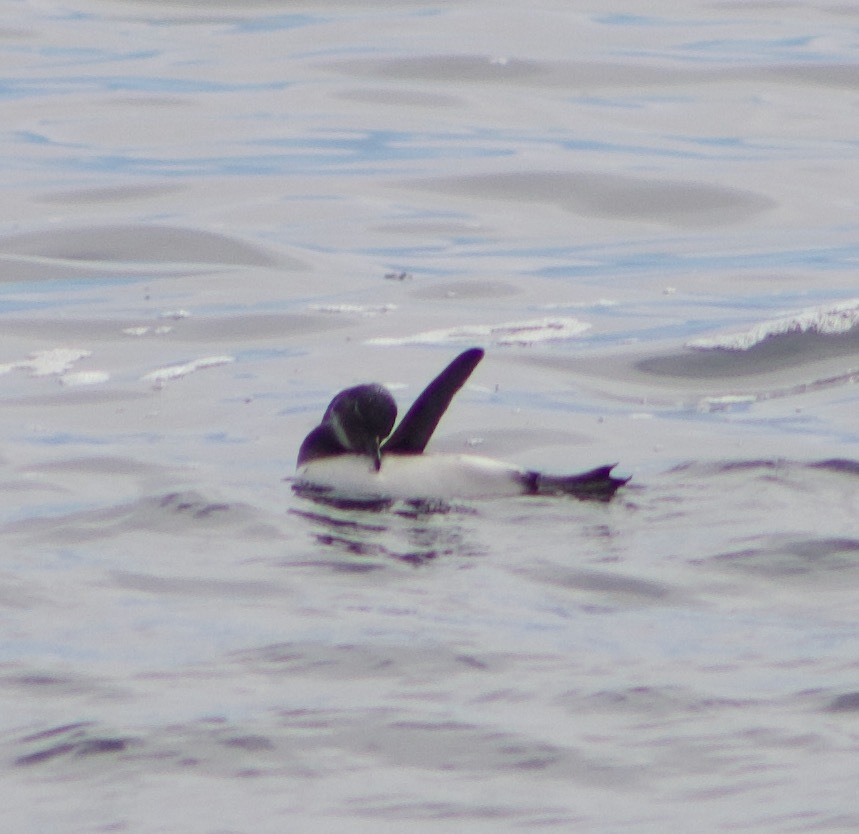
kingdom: Animalia
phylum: Chordata
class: Aves
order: Sphenisciformes
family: Spheniscidae
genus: Spheniscus
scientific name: Spheniscus magellanicus
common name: Magellanic penguin
